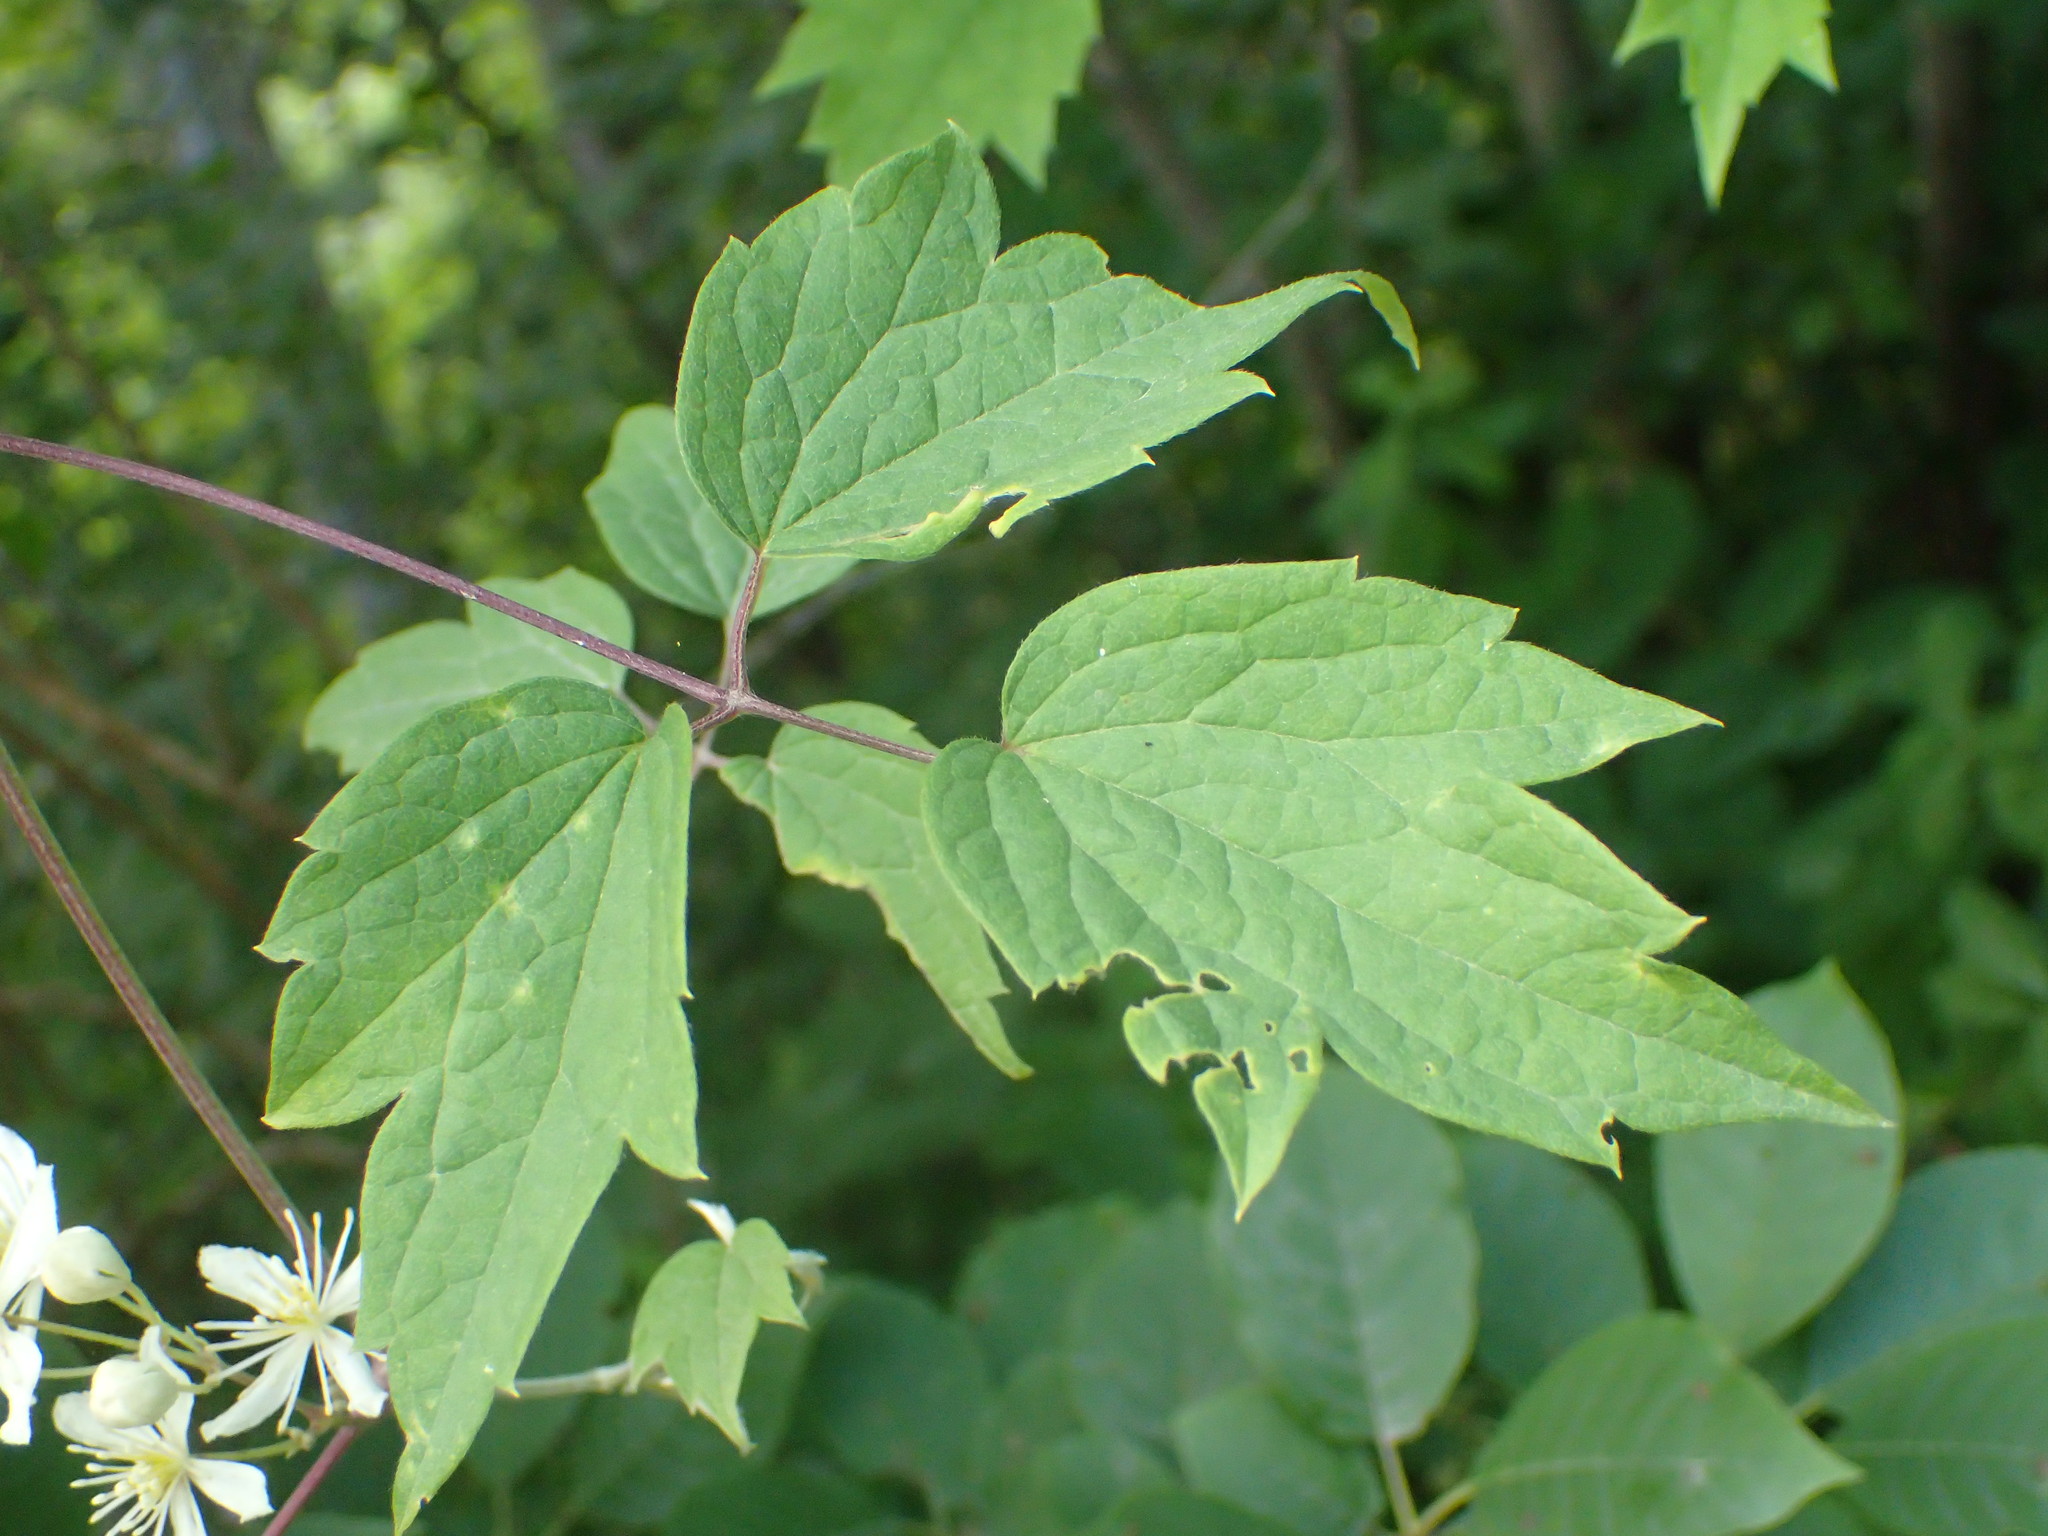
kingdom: Plantae
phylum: Tracheophyta
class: Magnoliopsida
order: Ranunculales
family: Ranunculaceae
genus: Clematis
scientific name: Clematis virginiana
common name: Virgin's-bower
